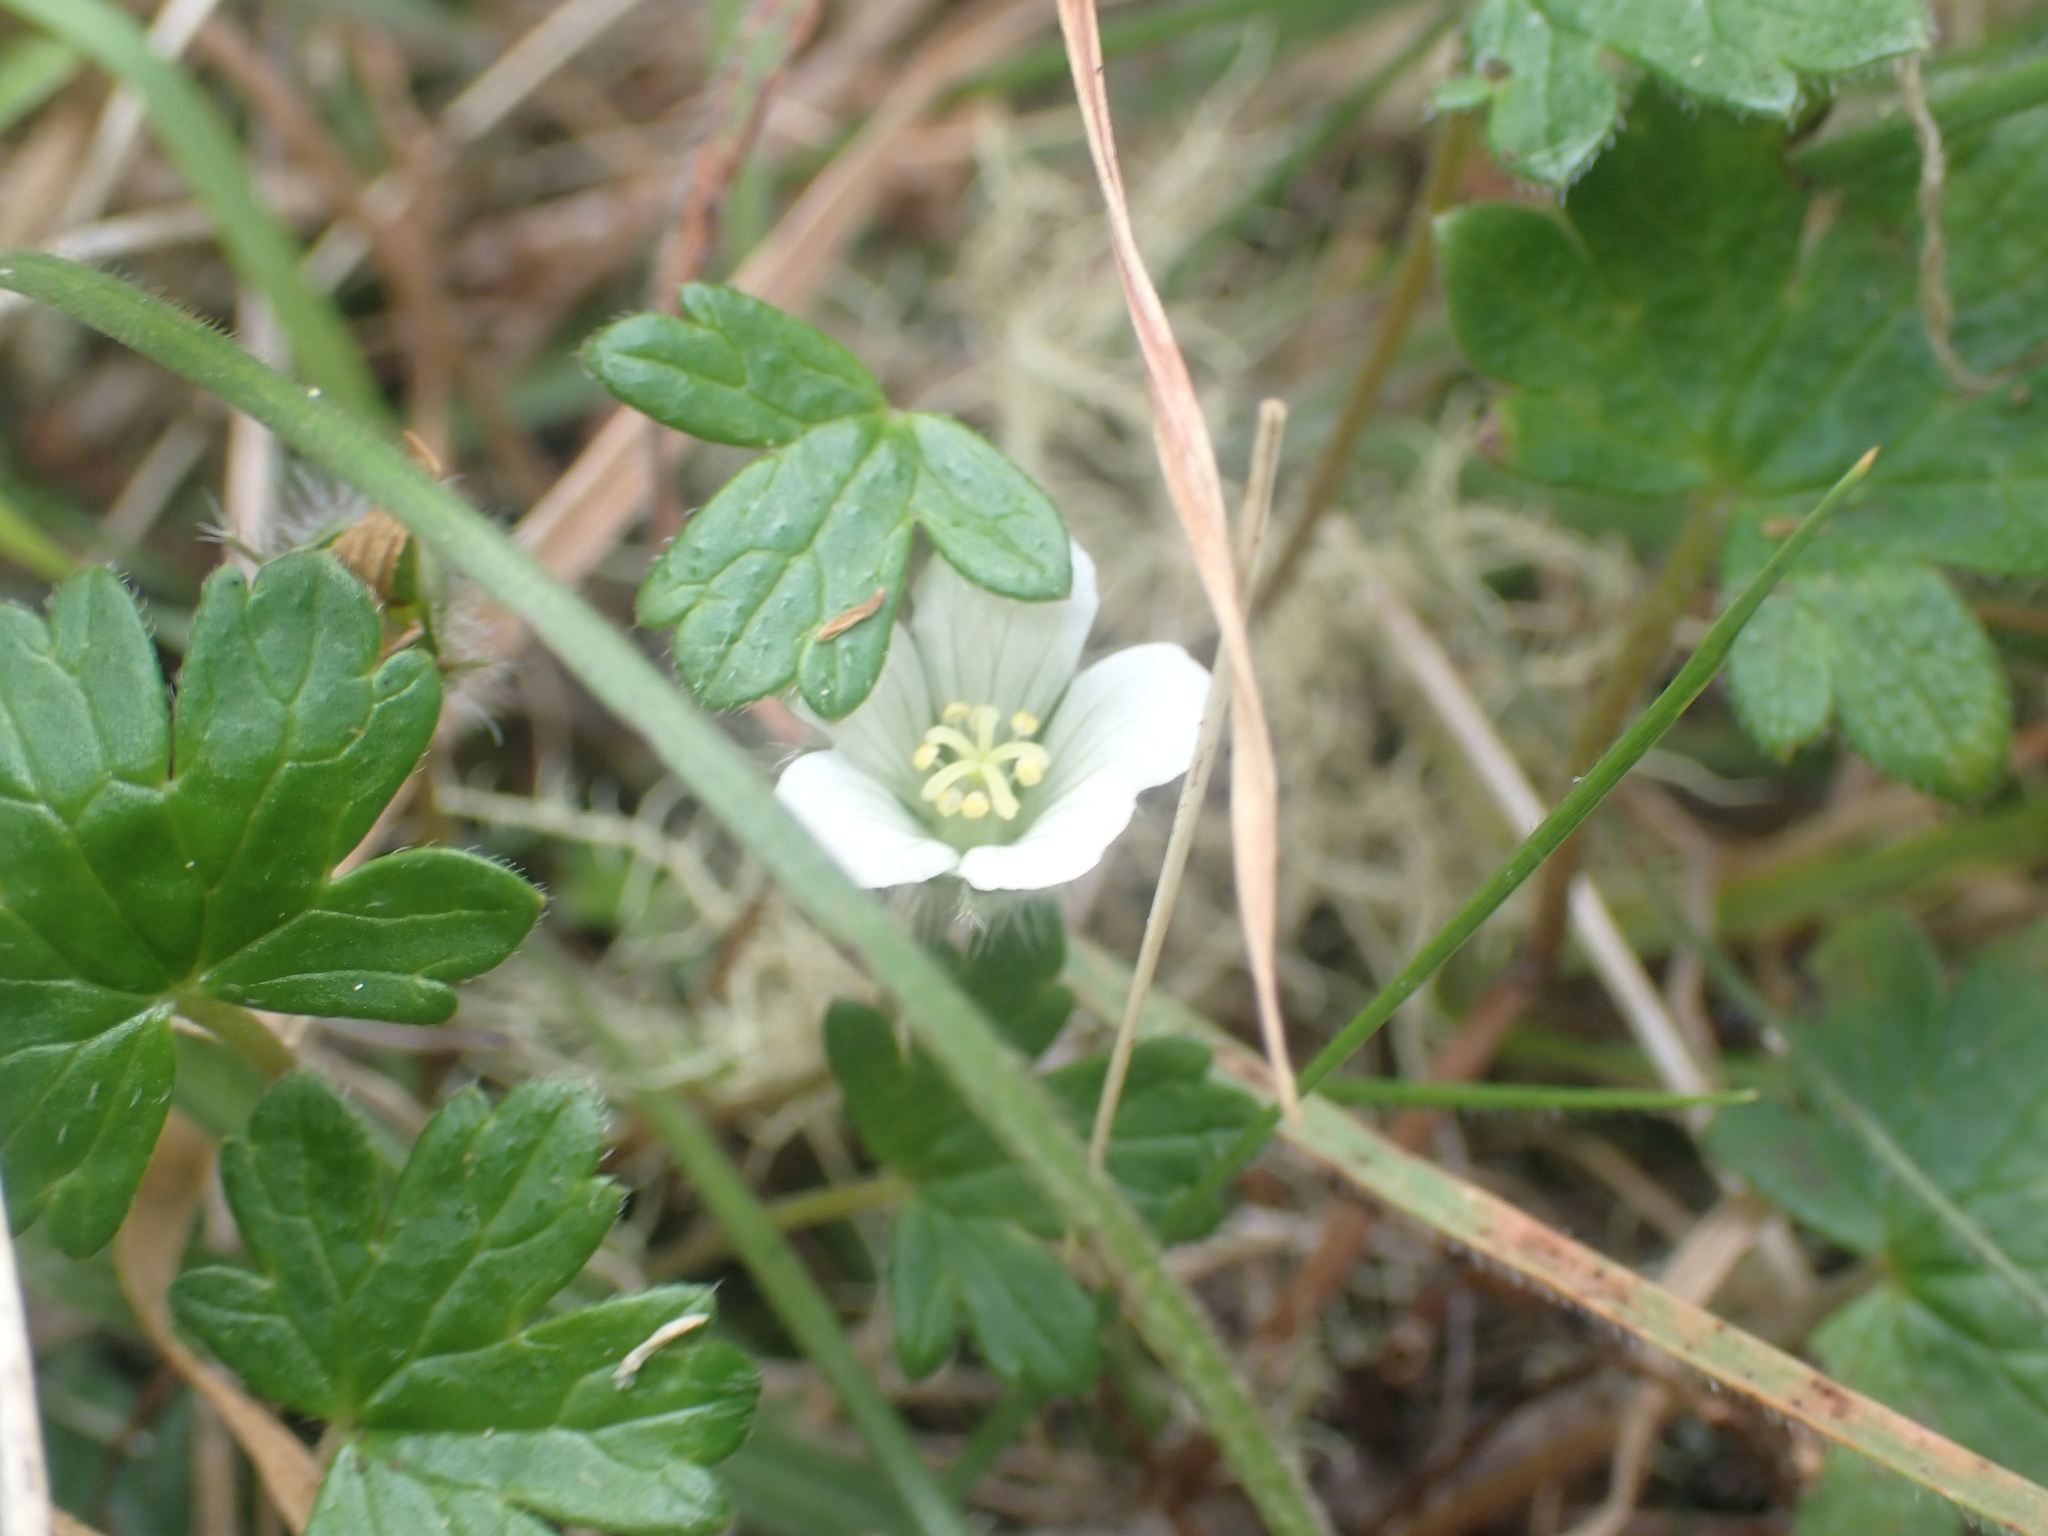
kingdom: Plantae
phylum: Tracheophyta
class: Magnoliopsida
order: Geraniales
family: Geraniaceae
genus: Geranium
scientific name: Geranium brevicaule
